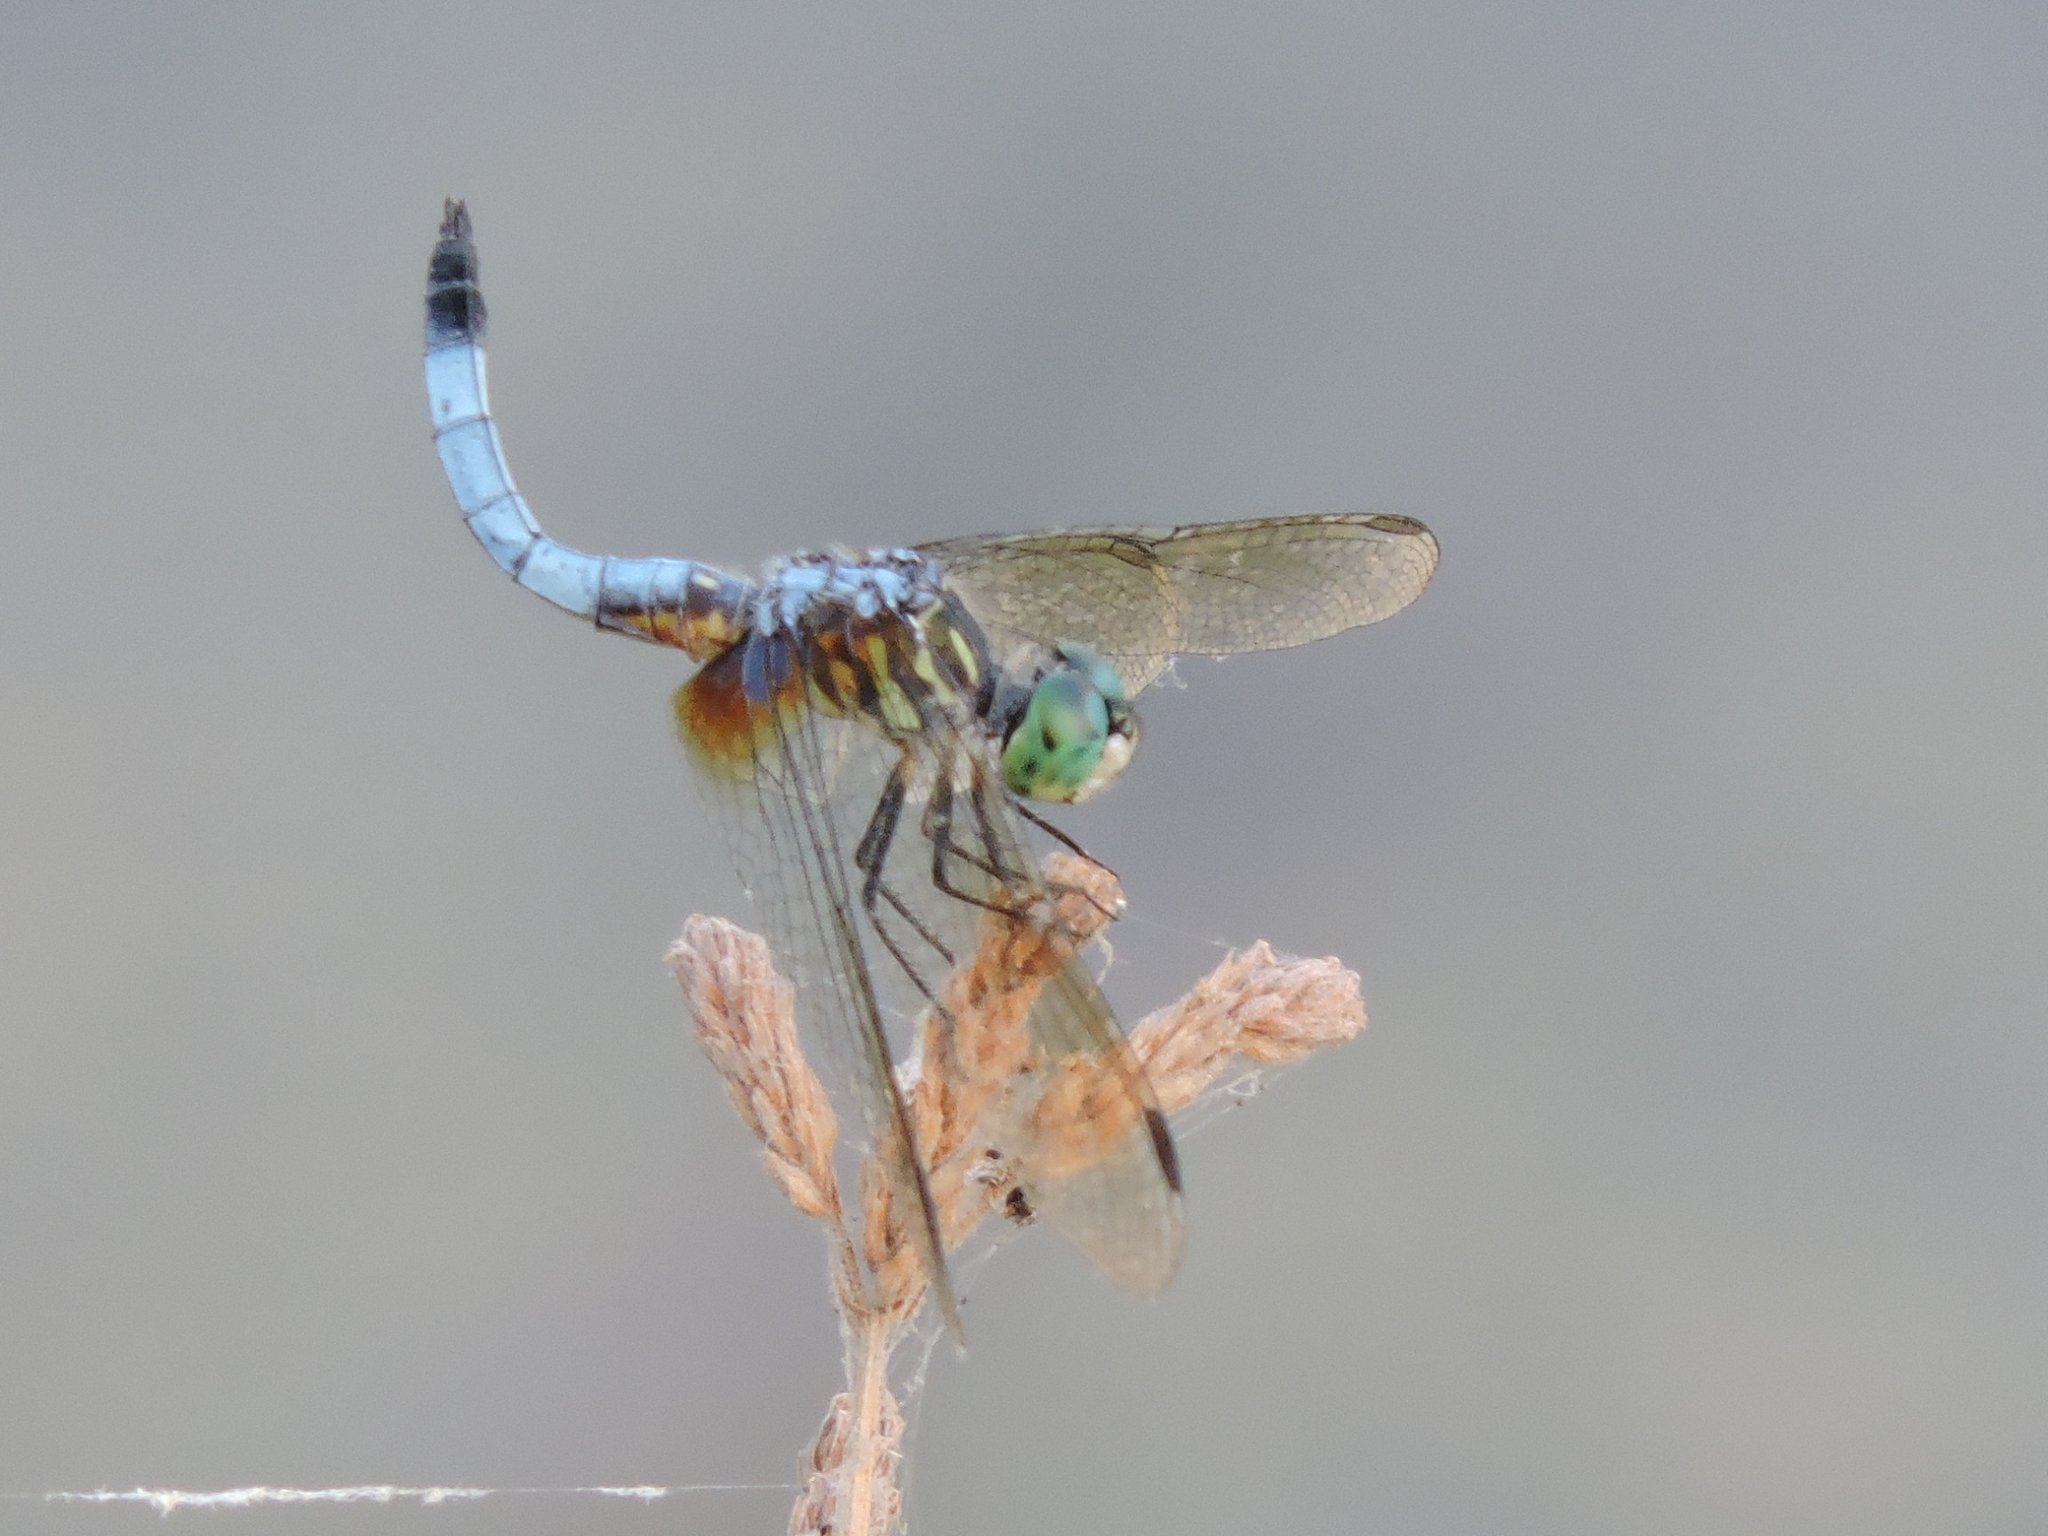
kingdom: Animalia
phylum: Arthropoda
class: Insecta
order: Odonata
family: Libellulidae
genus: Pachydiplax
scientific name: Pachydiplax longipennis
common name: Blue dasher
